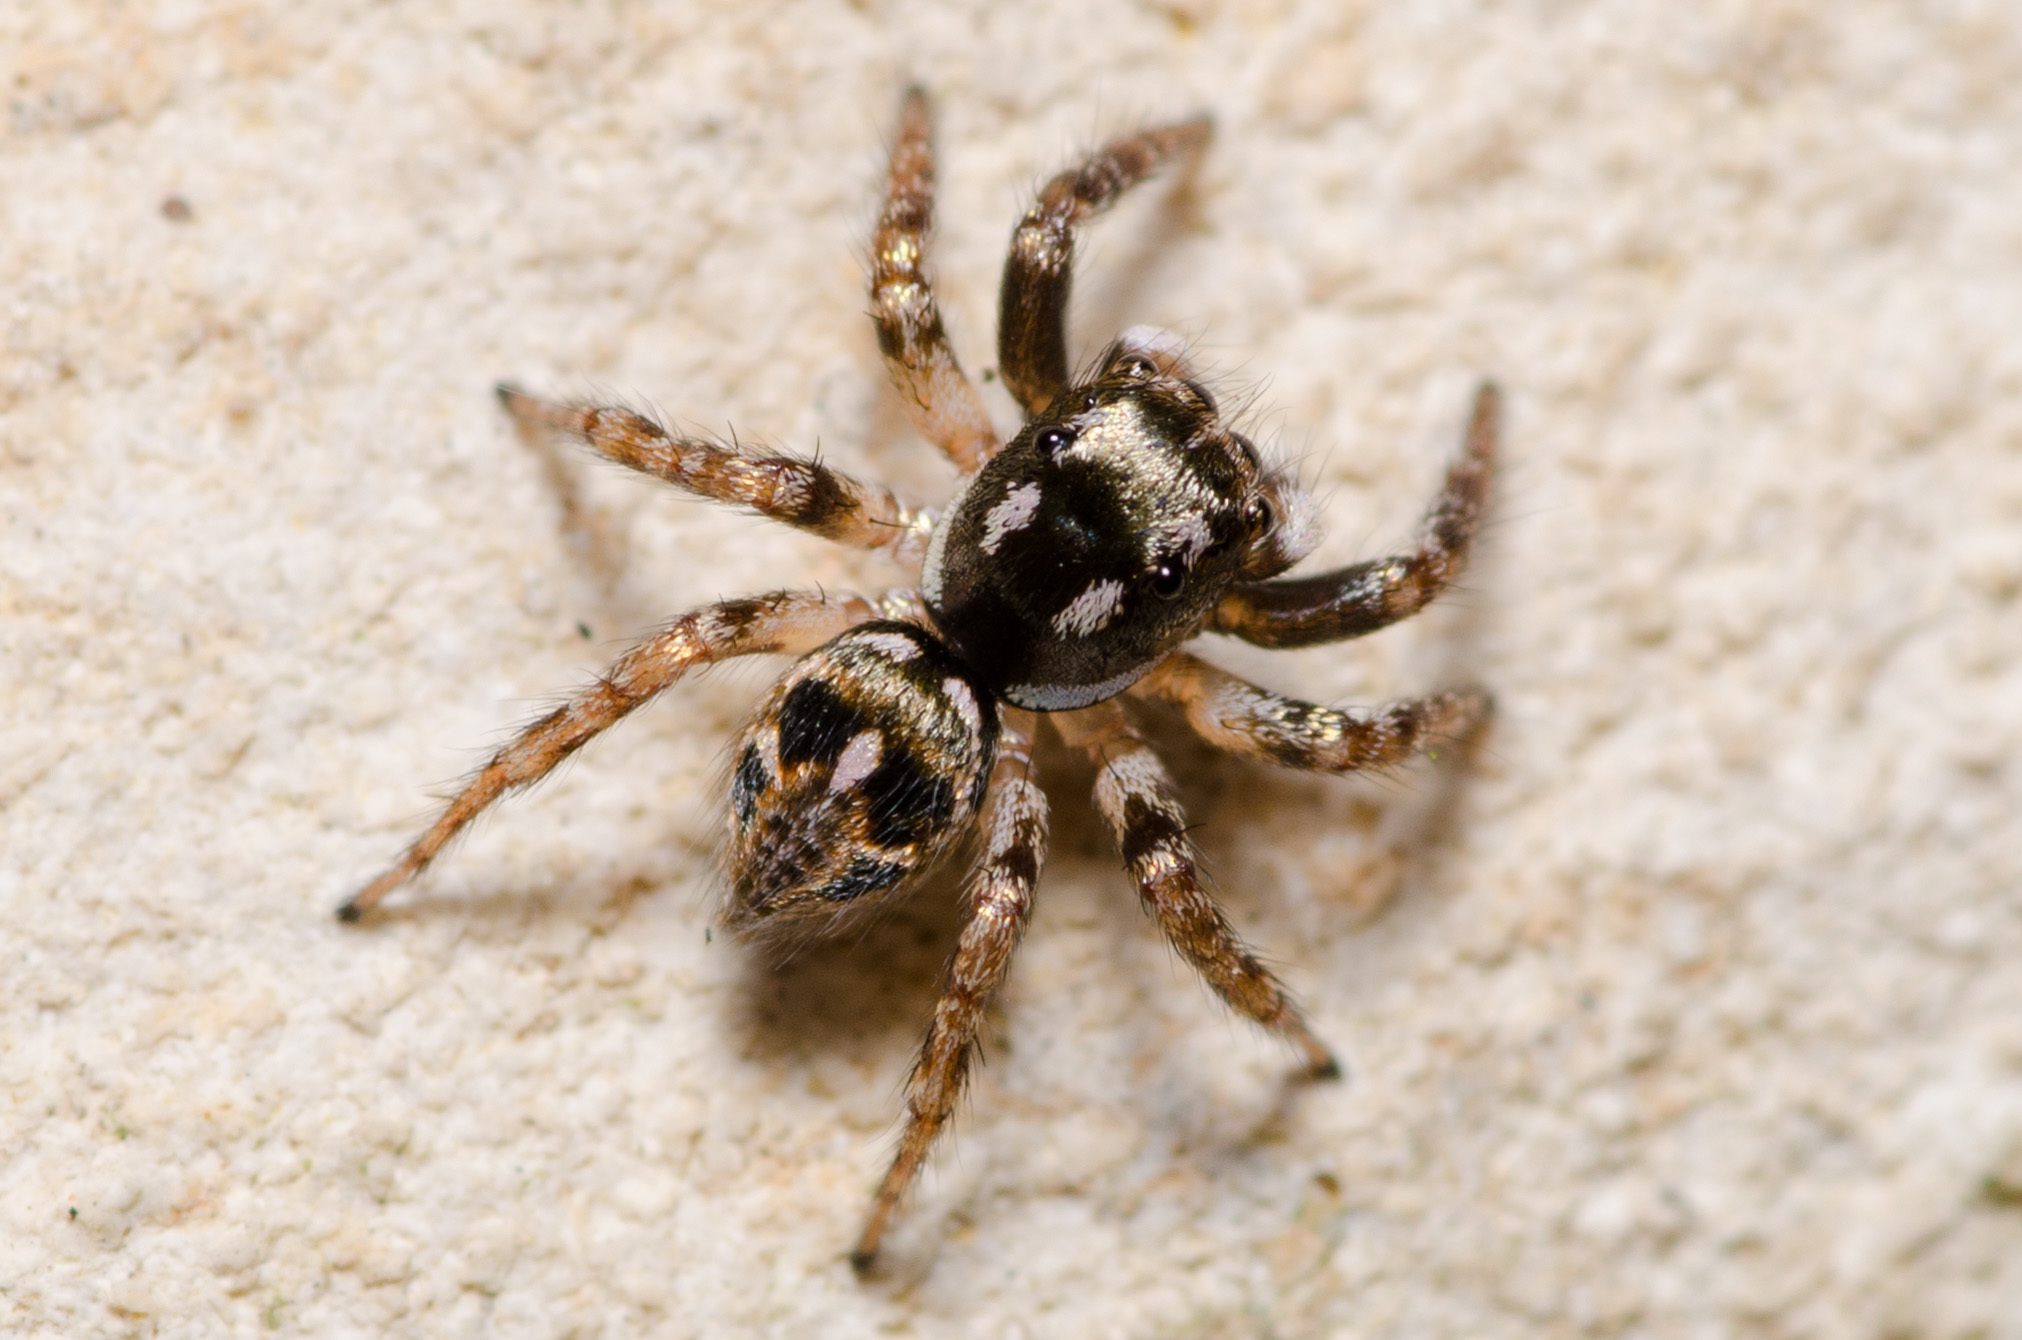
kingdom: Animalia
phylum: Arthropoda
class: Arachnida
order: Araneae
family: Salticidae
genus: Anasaitis
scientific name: Anasaitis canosa
